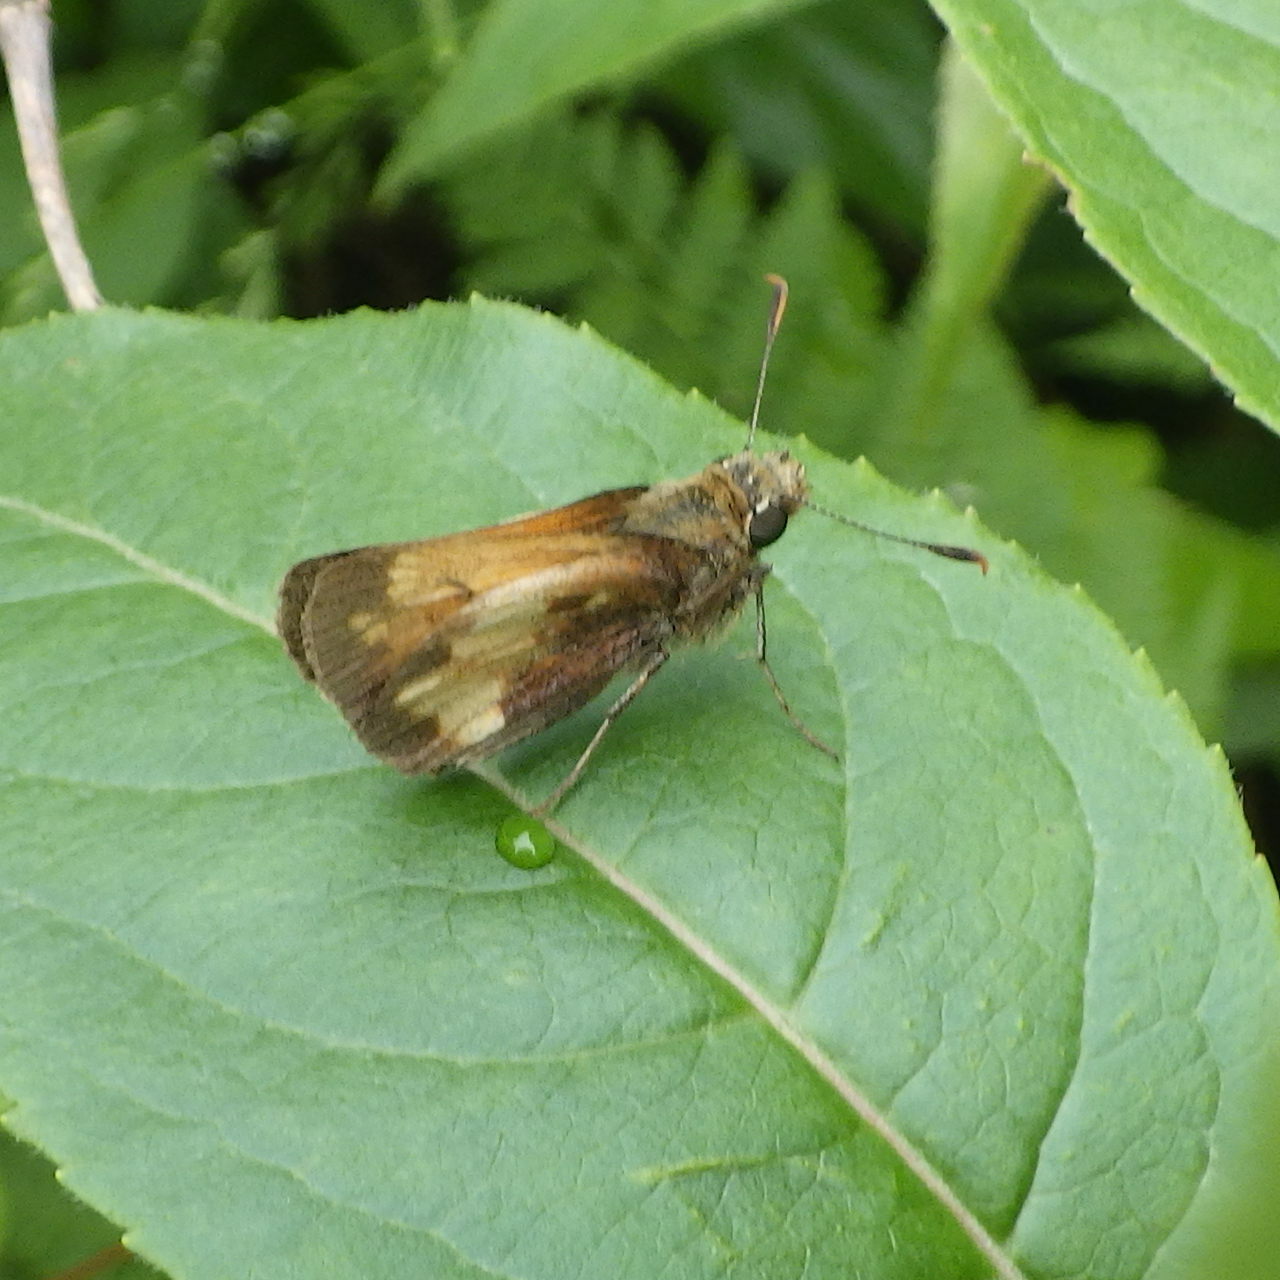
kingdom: Animalia
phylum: Arthropoda
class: Insecta
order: Lepidoptera
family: Hesperiidae
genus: Lon
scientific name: Lon hobomok
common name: Hobomok skipper
